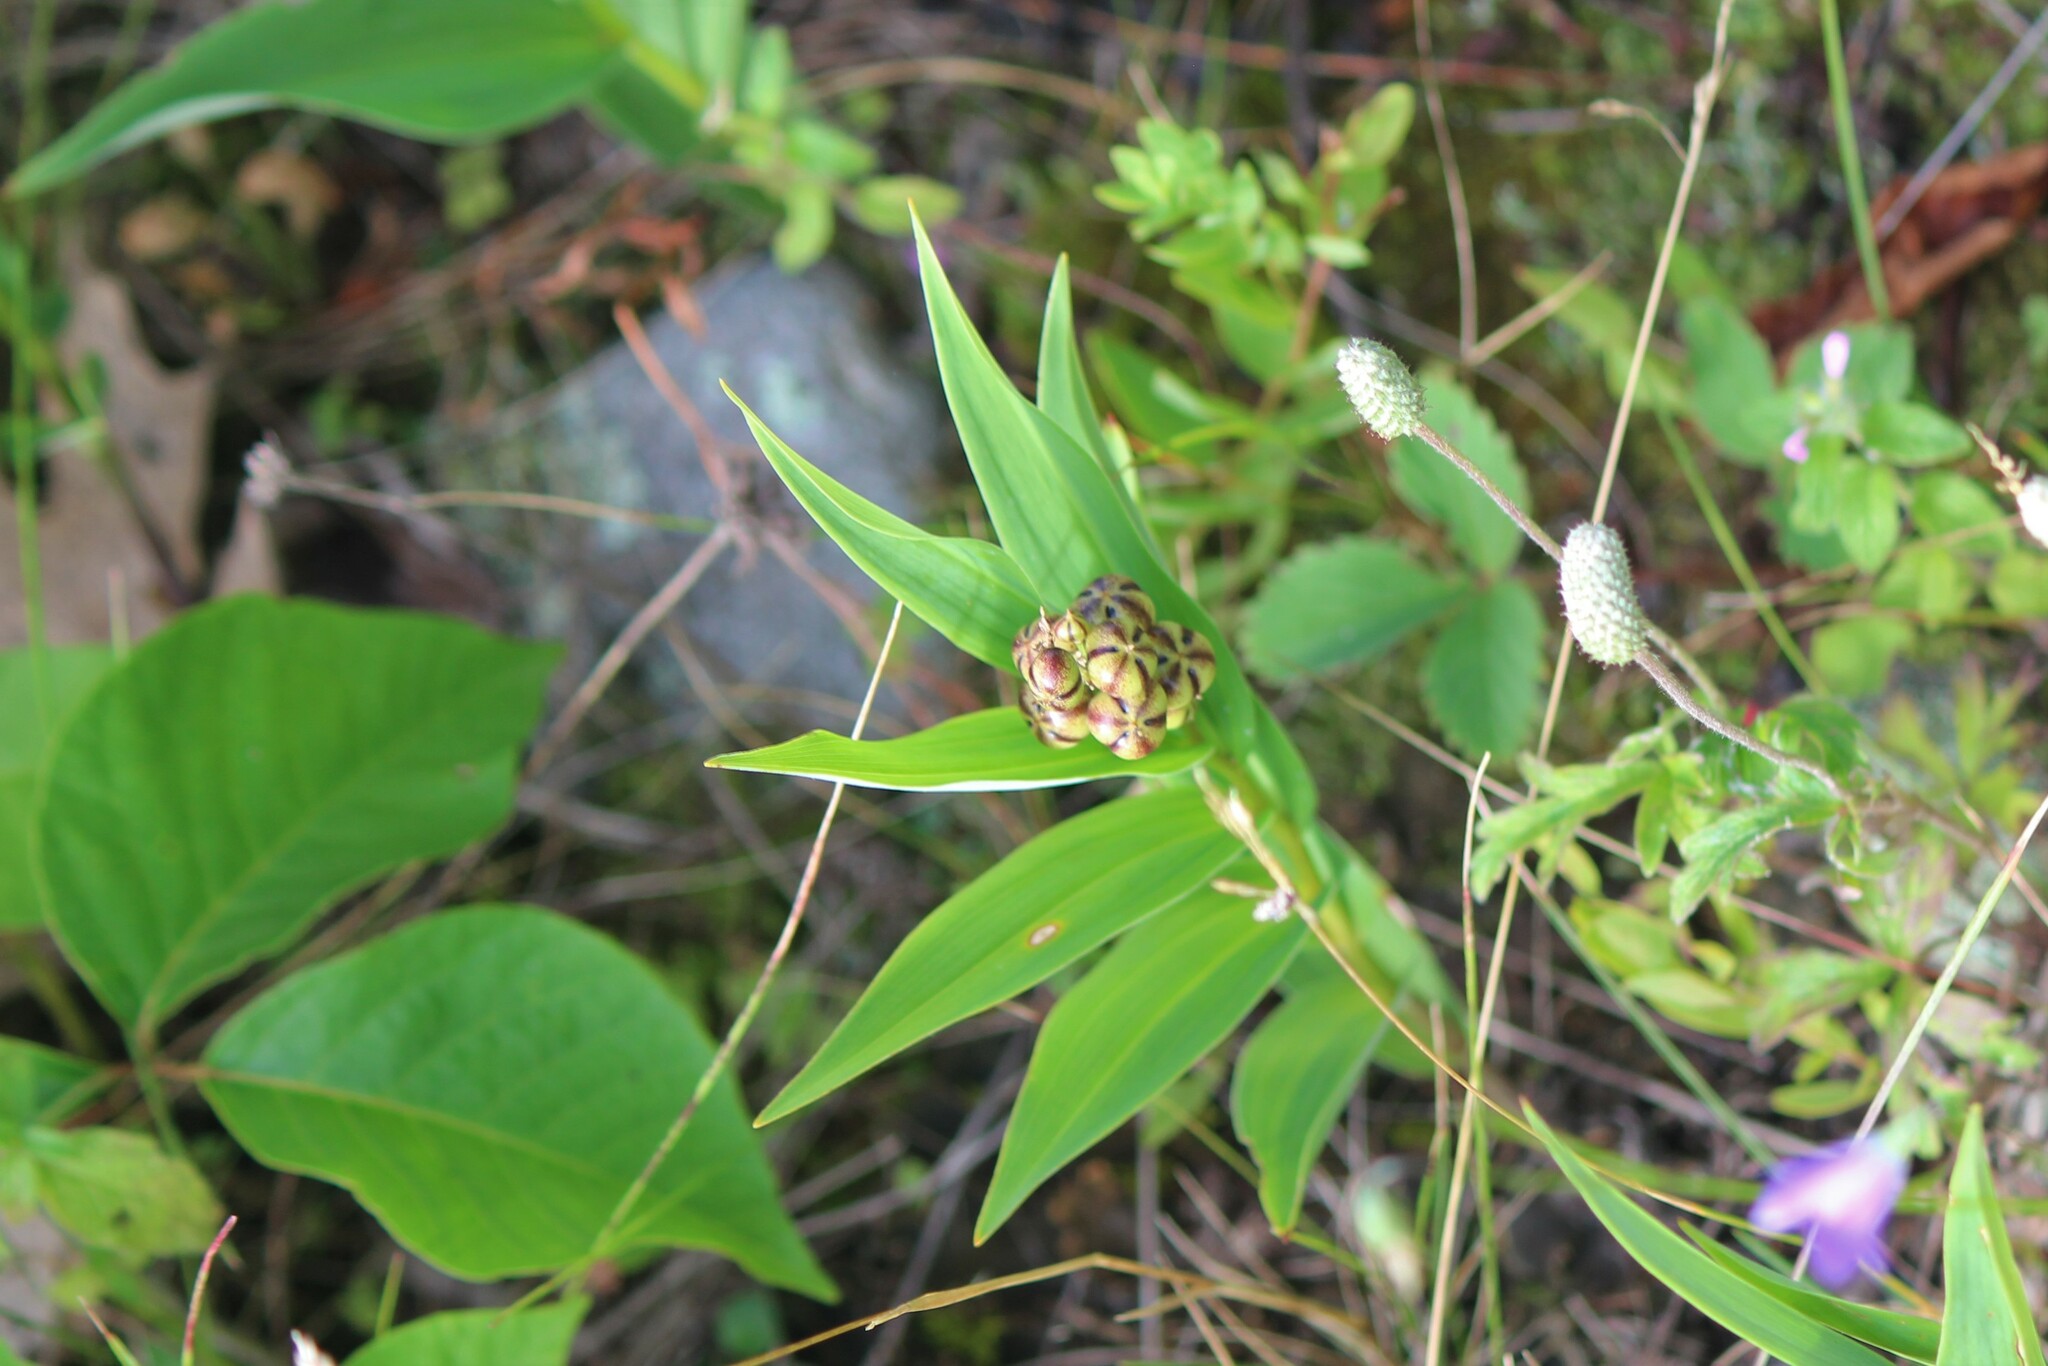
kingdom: Plantae
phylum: Tracheophyta
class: Liliopsida
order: Asparagales
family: Asparagaceae
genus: Maianthemum
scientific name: Maianthemum stellatum
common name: Little false solomon's seal
